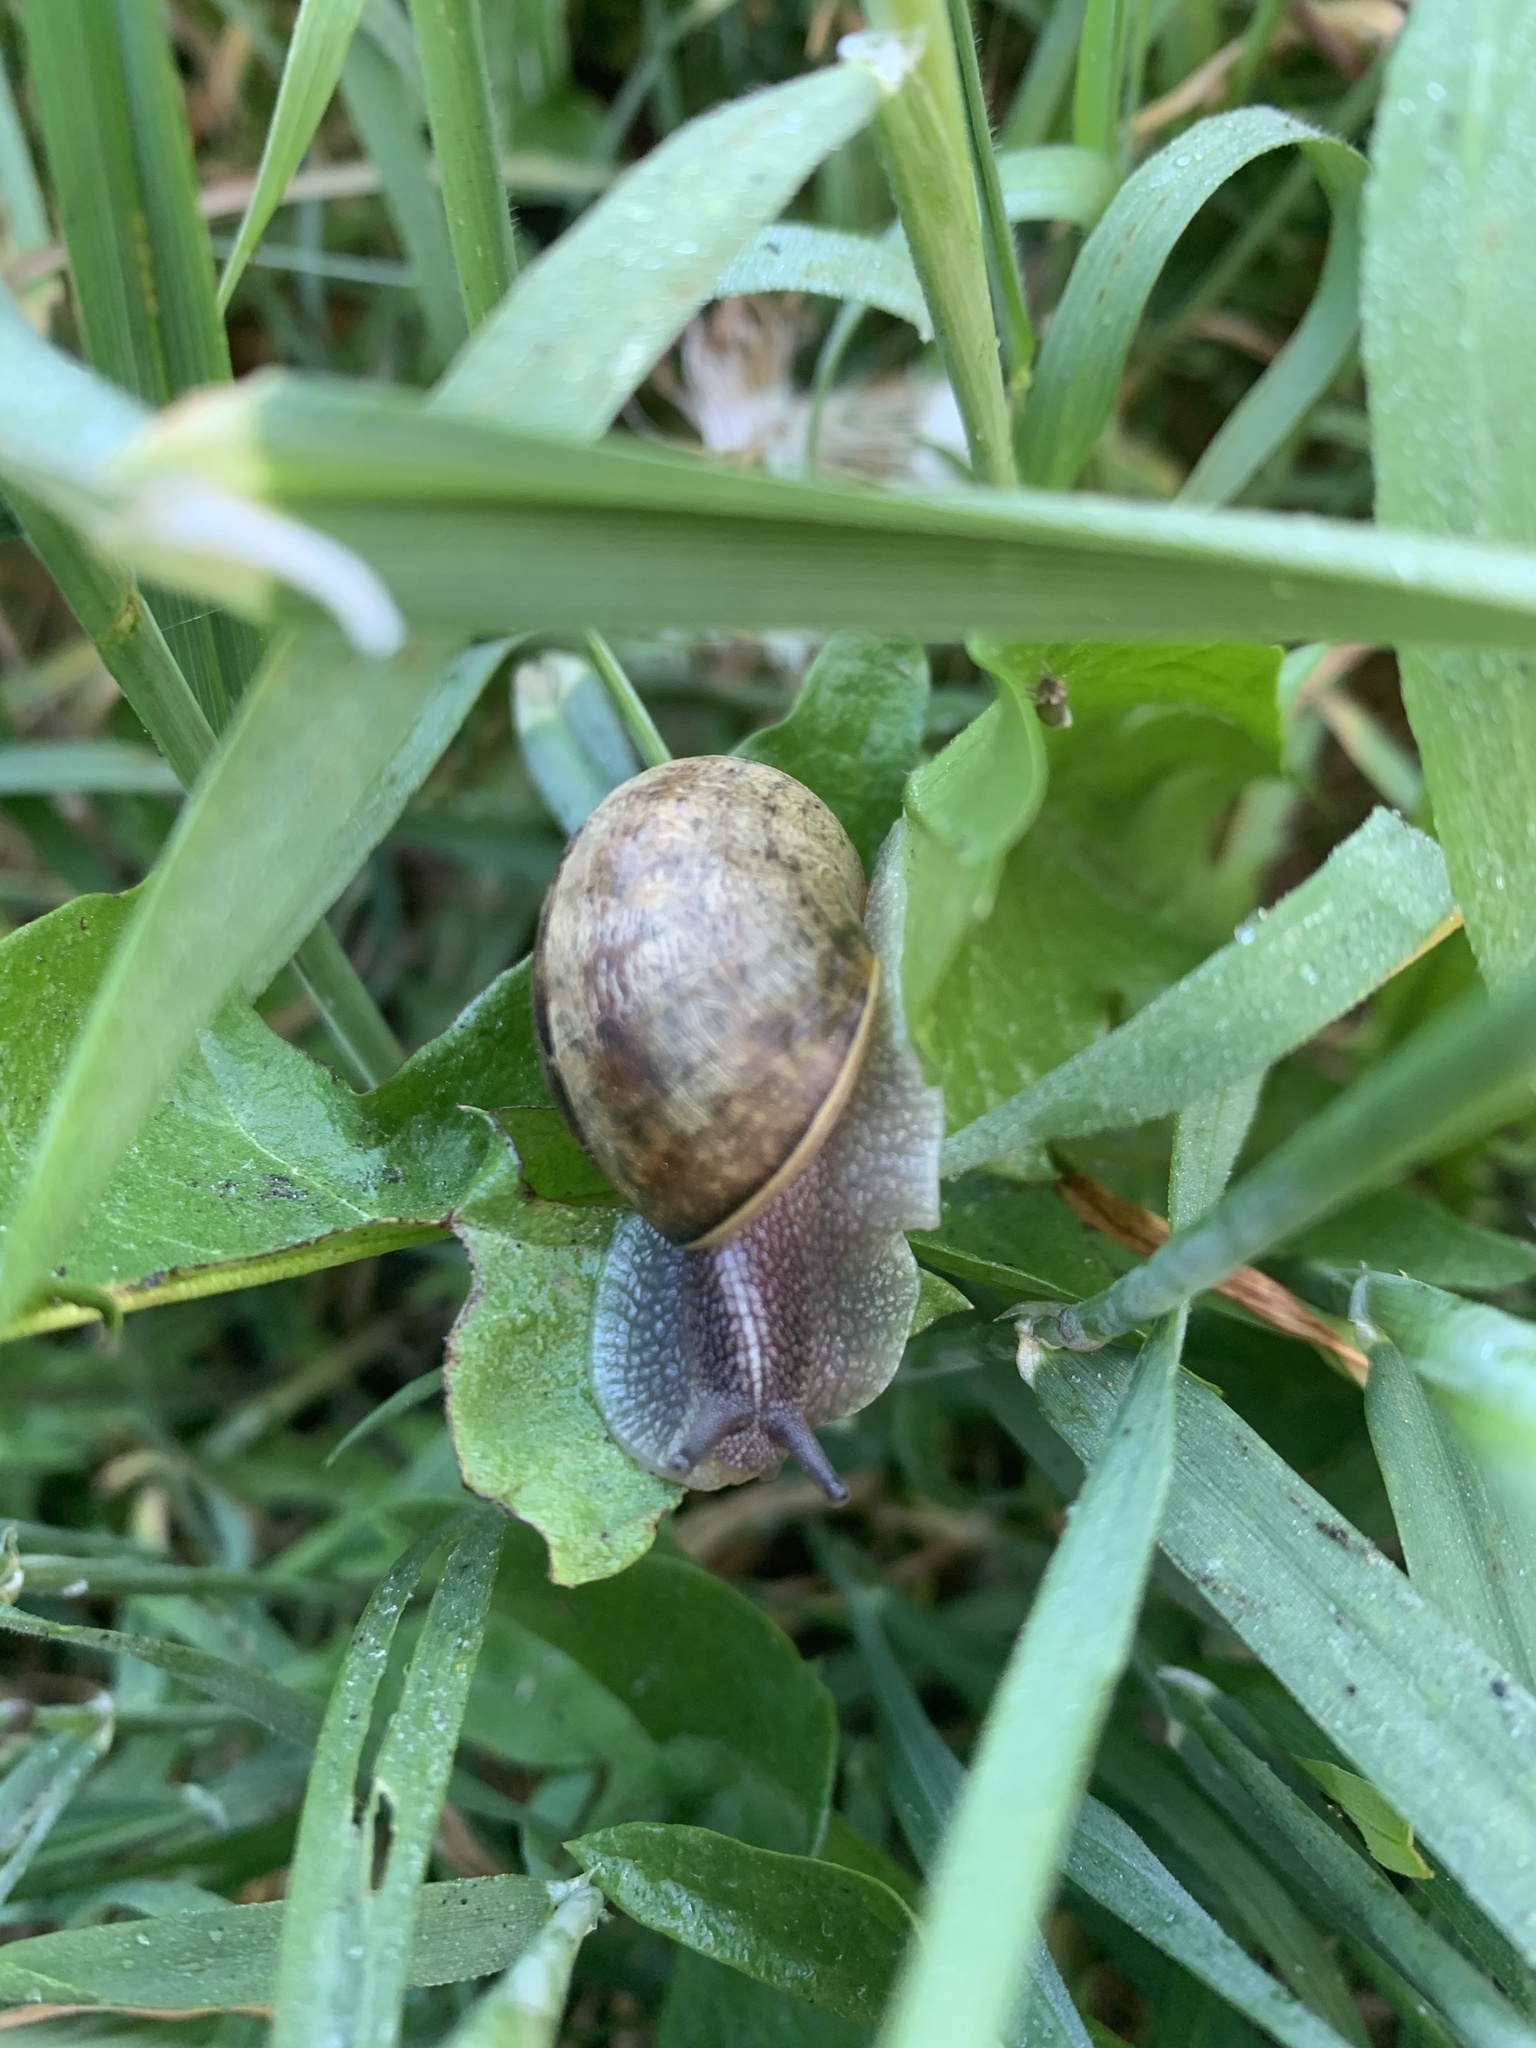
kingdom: Animalia
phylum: Mollusca
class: Gastropoda
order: Stylommatophora
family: Helicidae
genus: Cornu
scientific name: Cornu aspersum
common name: Brown garden snail
